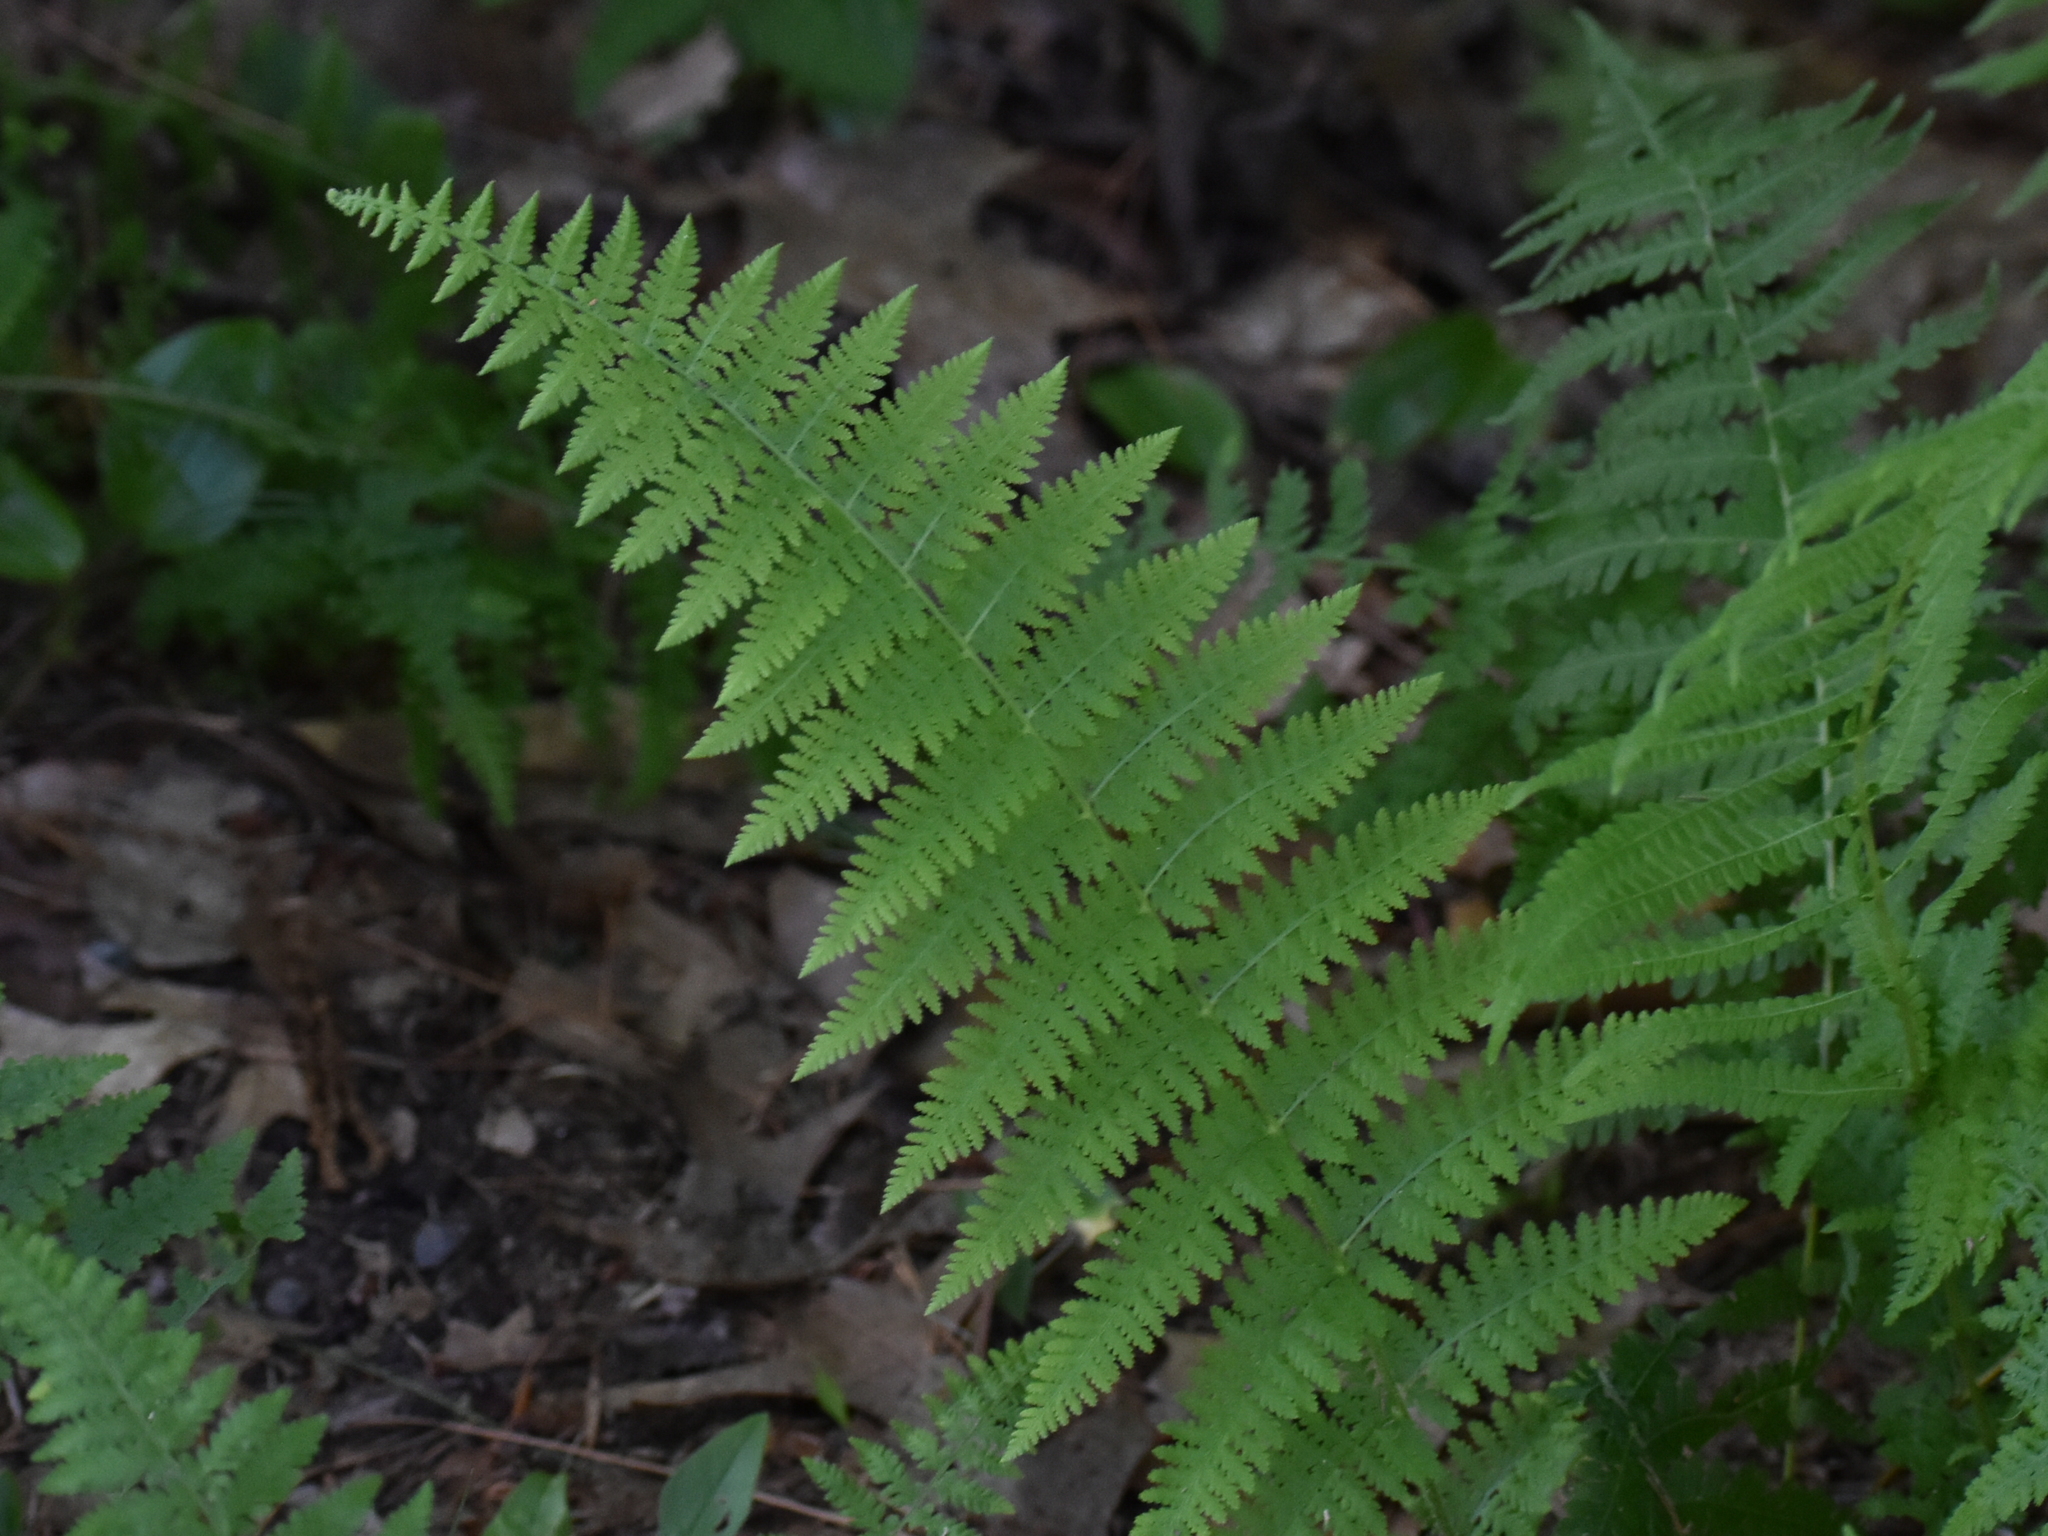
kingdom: Plantae
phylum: Tracheophyta
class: Polypodiopsida
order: Polypodiales
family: Dennstaedtiaceae
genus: Sitobolium
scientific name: Sitobolium punctilobum
